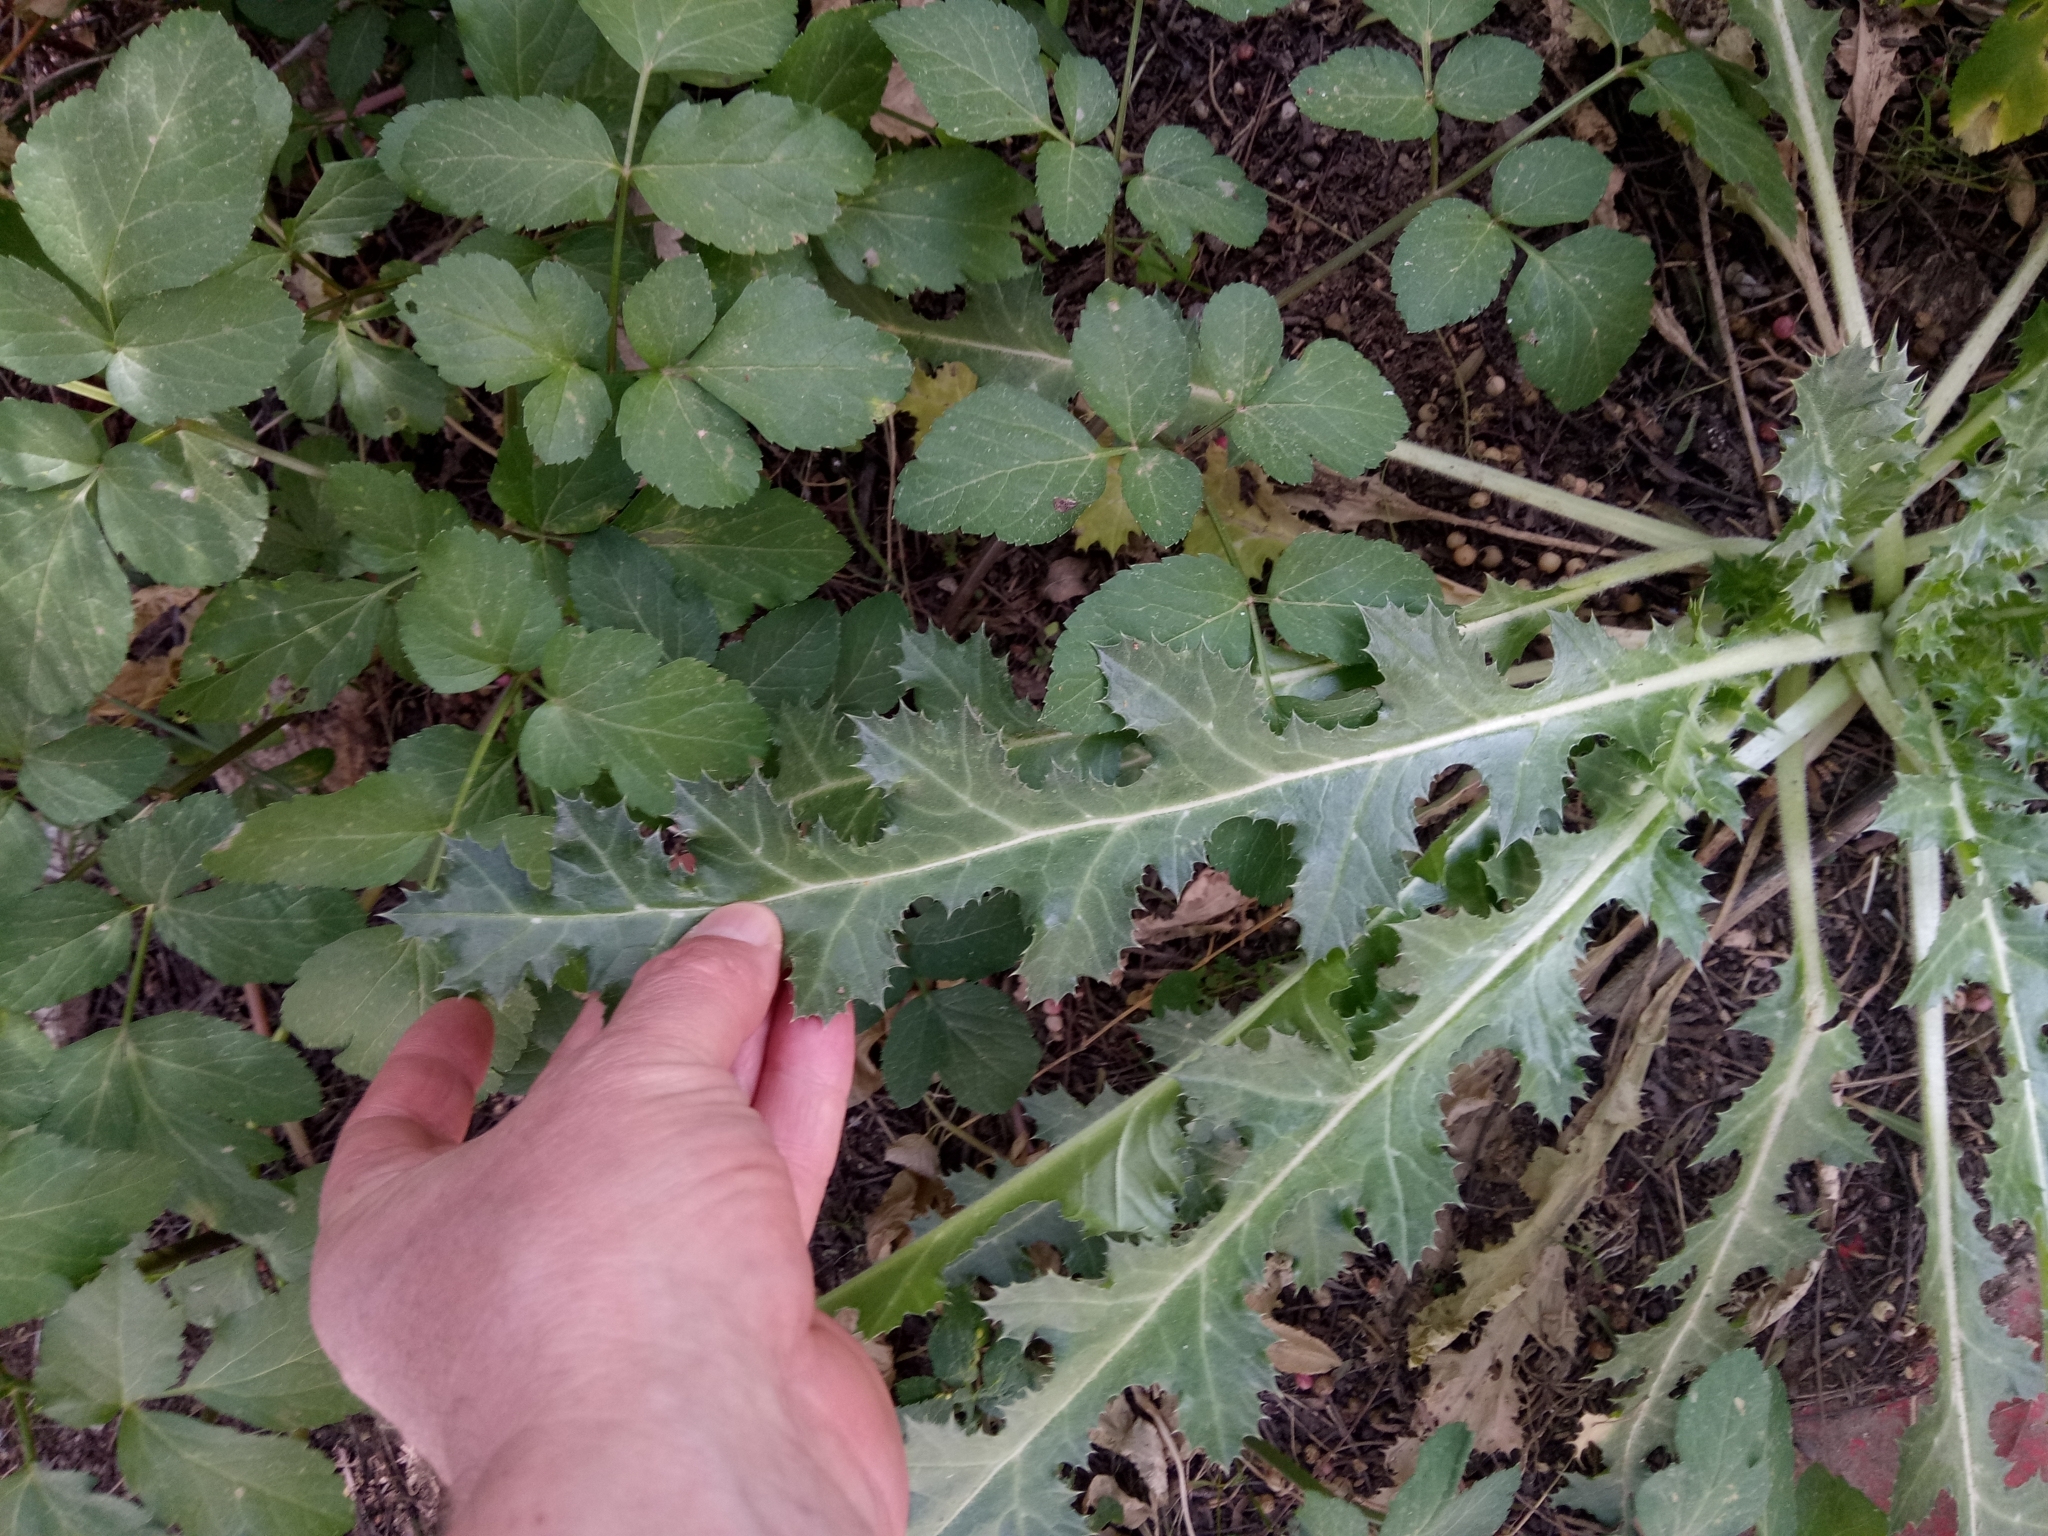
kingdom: Plantae
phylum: Tracheophyta
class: Magnoliopsida
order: Asterales
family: Asteraceae
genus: Scolymus
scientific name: Scolymus hispanicus
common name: Golden thistle
